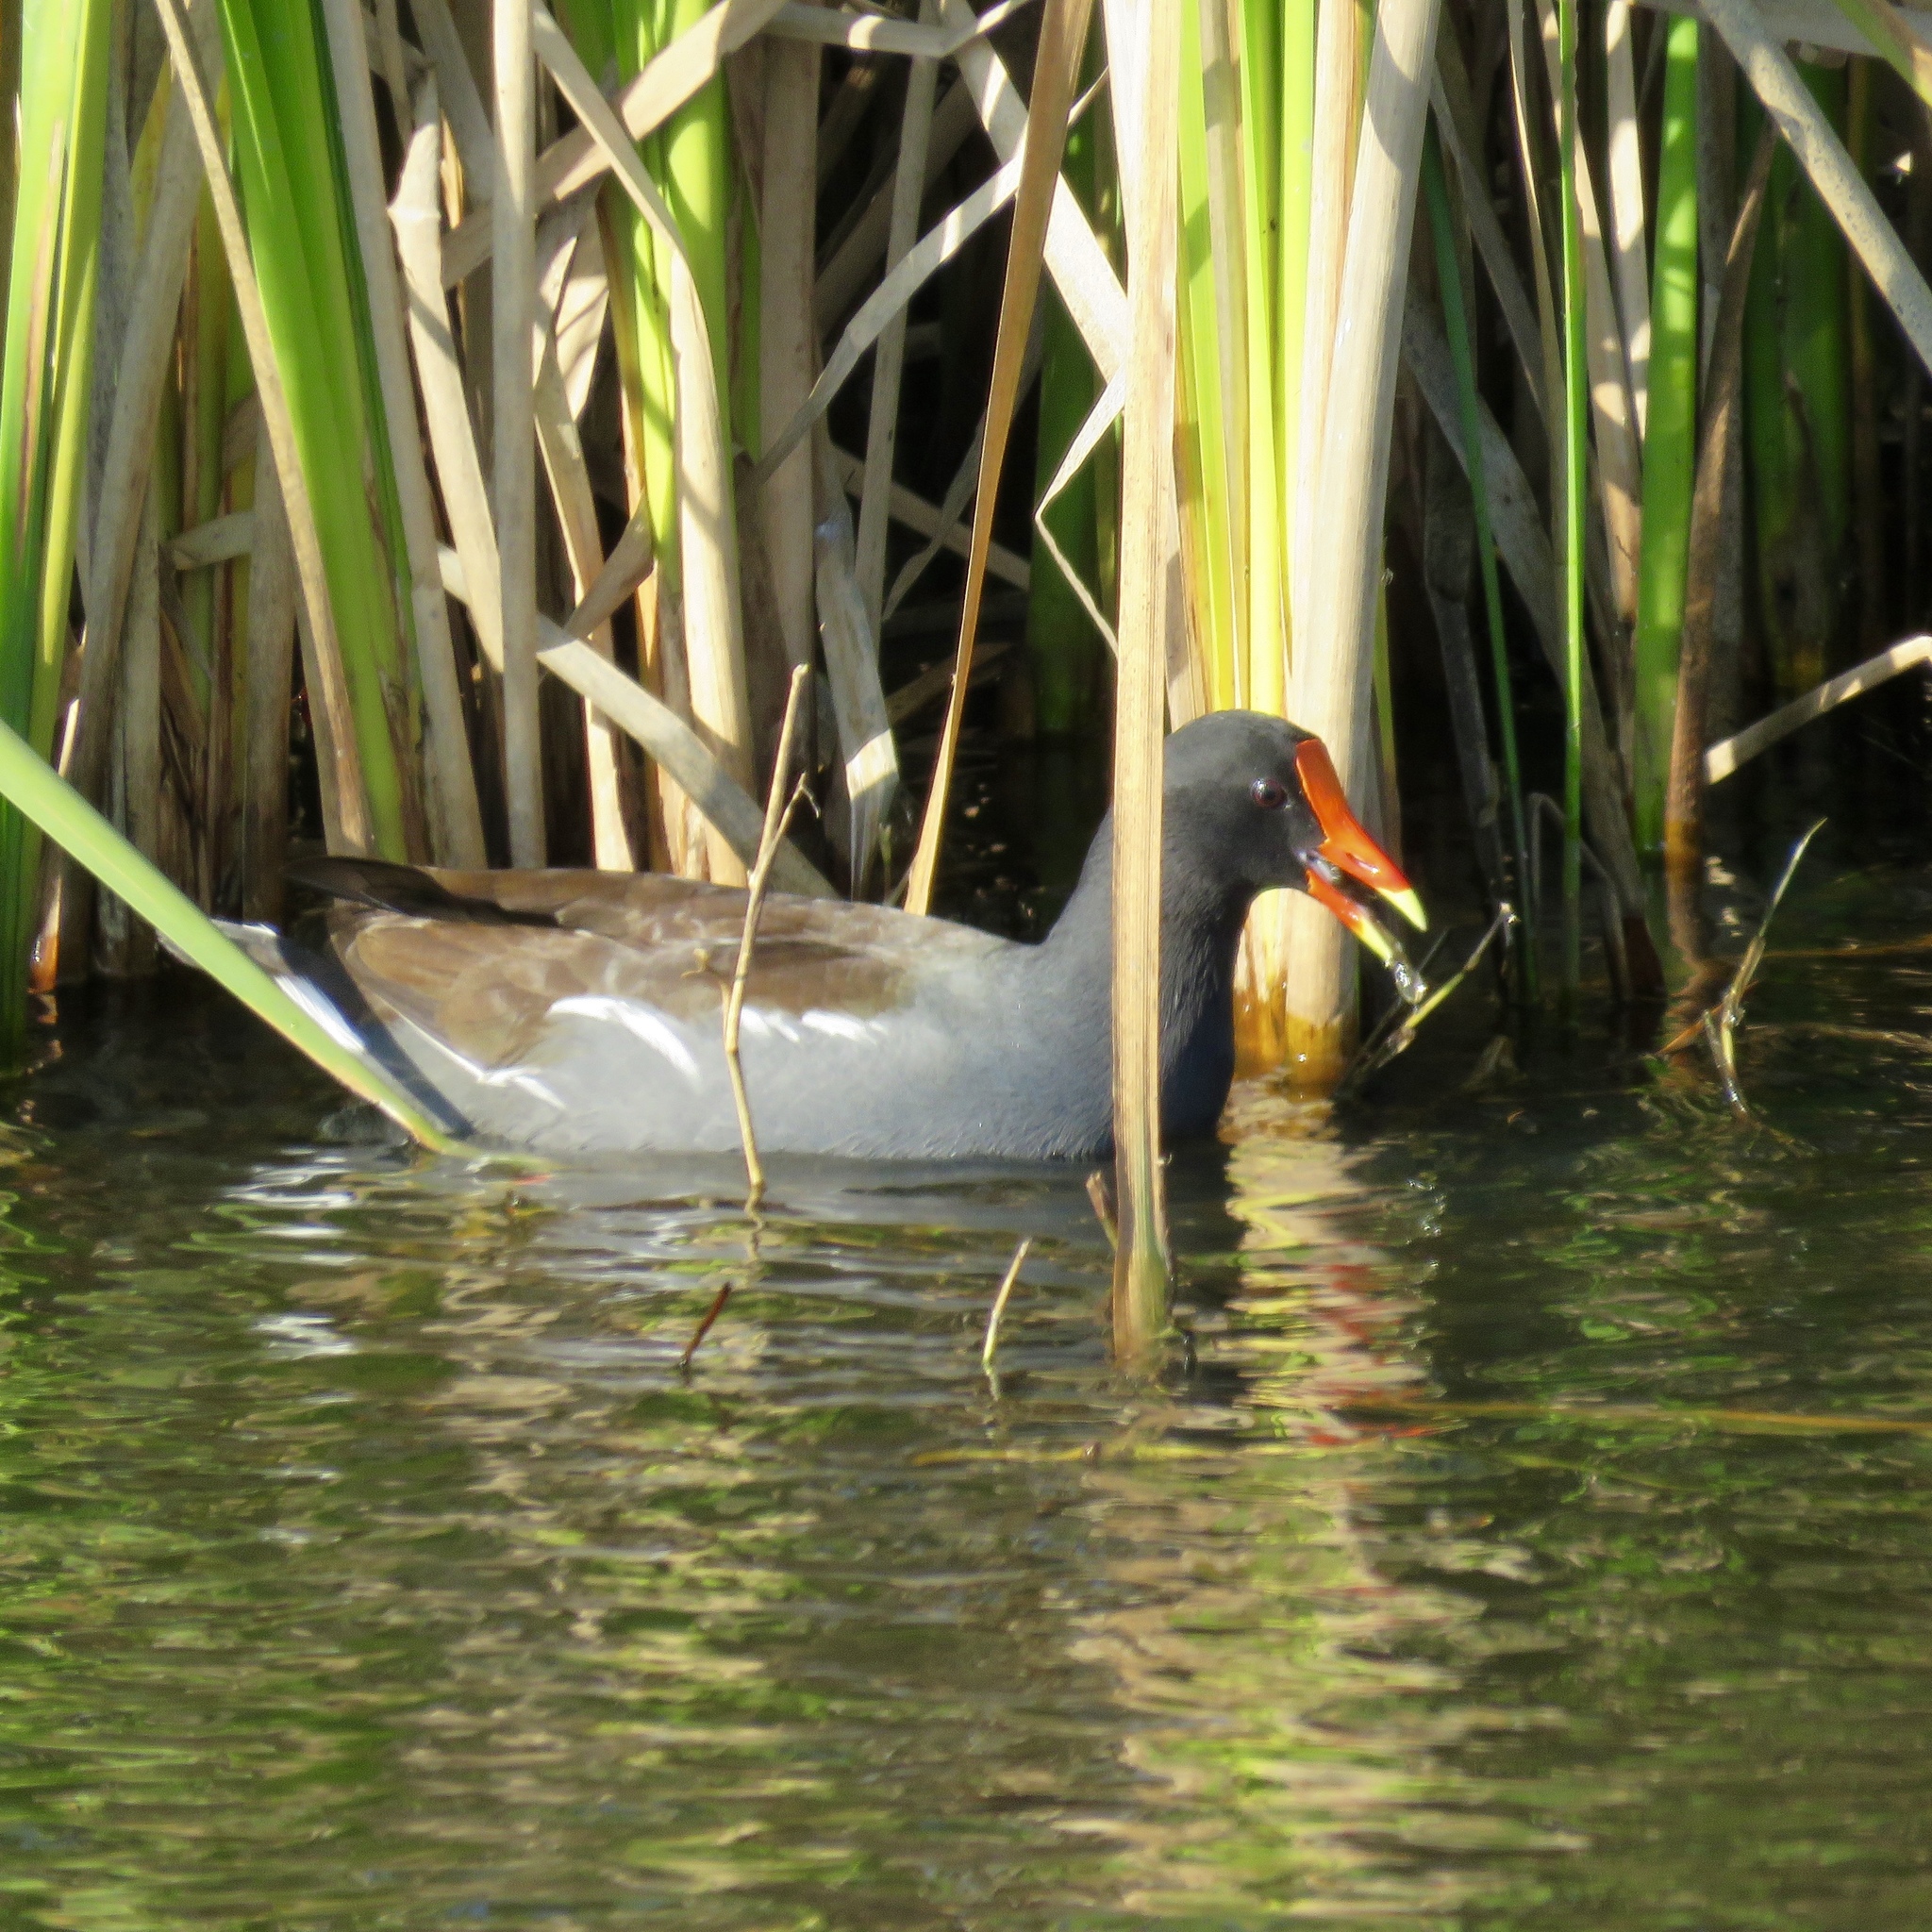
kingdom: Animalia
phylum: Chordata
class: Aves
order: Gruiformes
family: Rallidae
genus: Gallinula
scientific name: Gallinula chloropus
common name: Common moorhen
